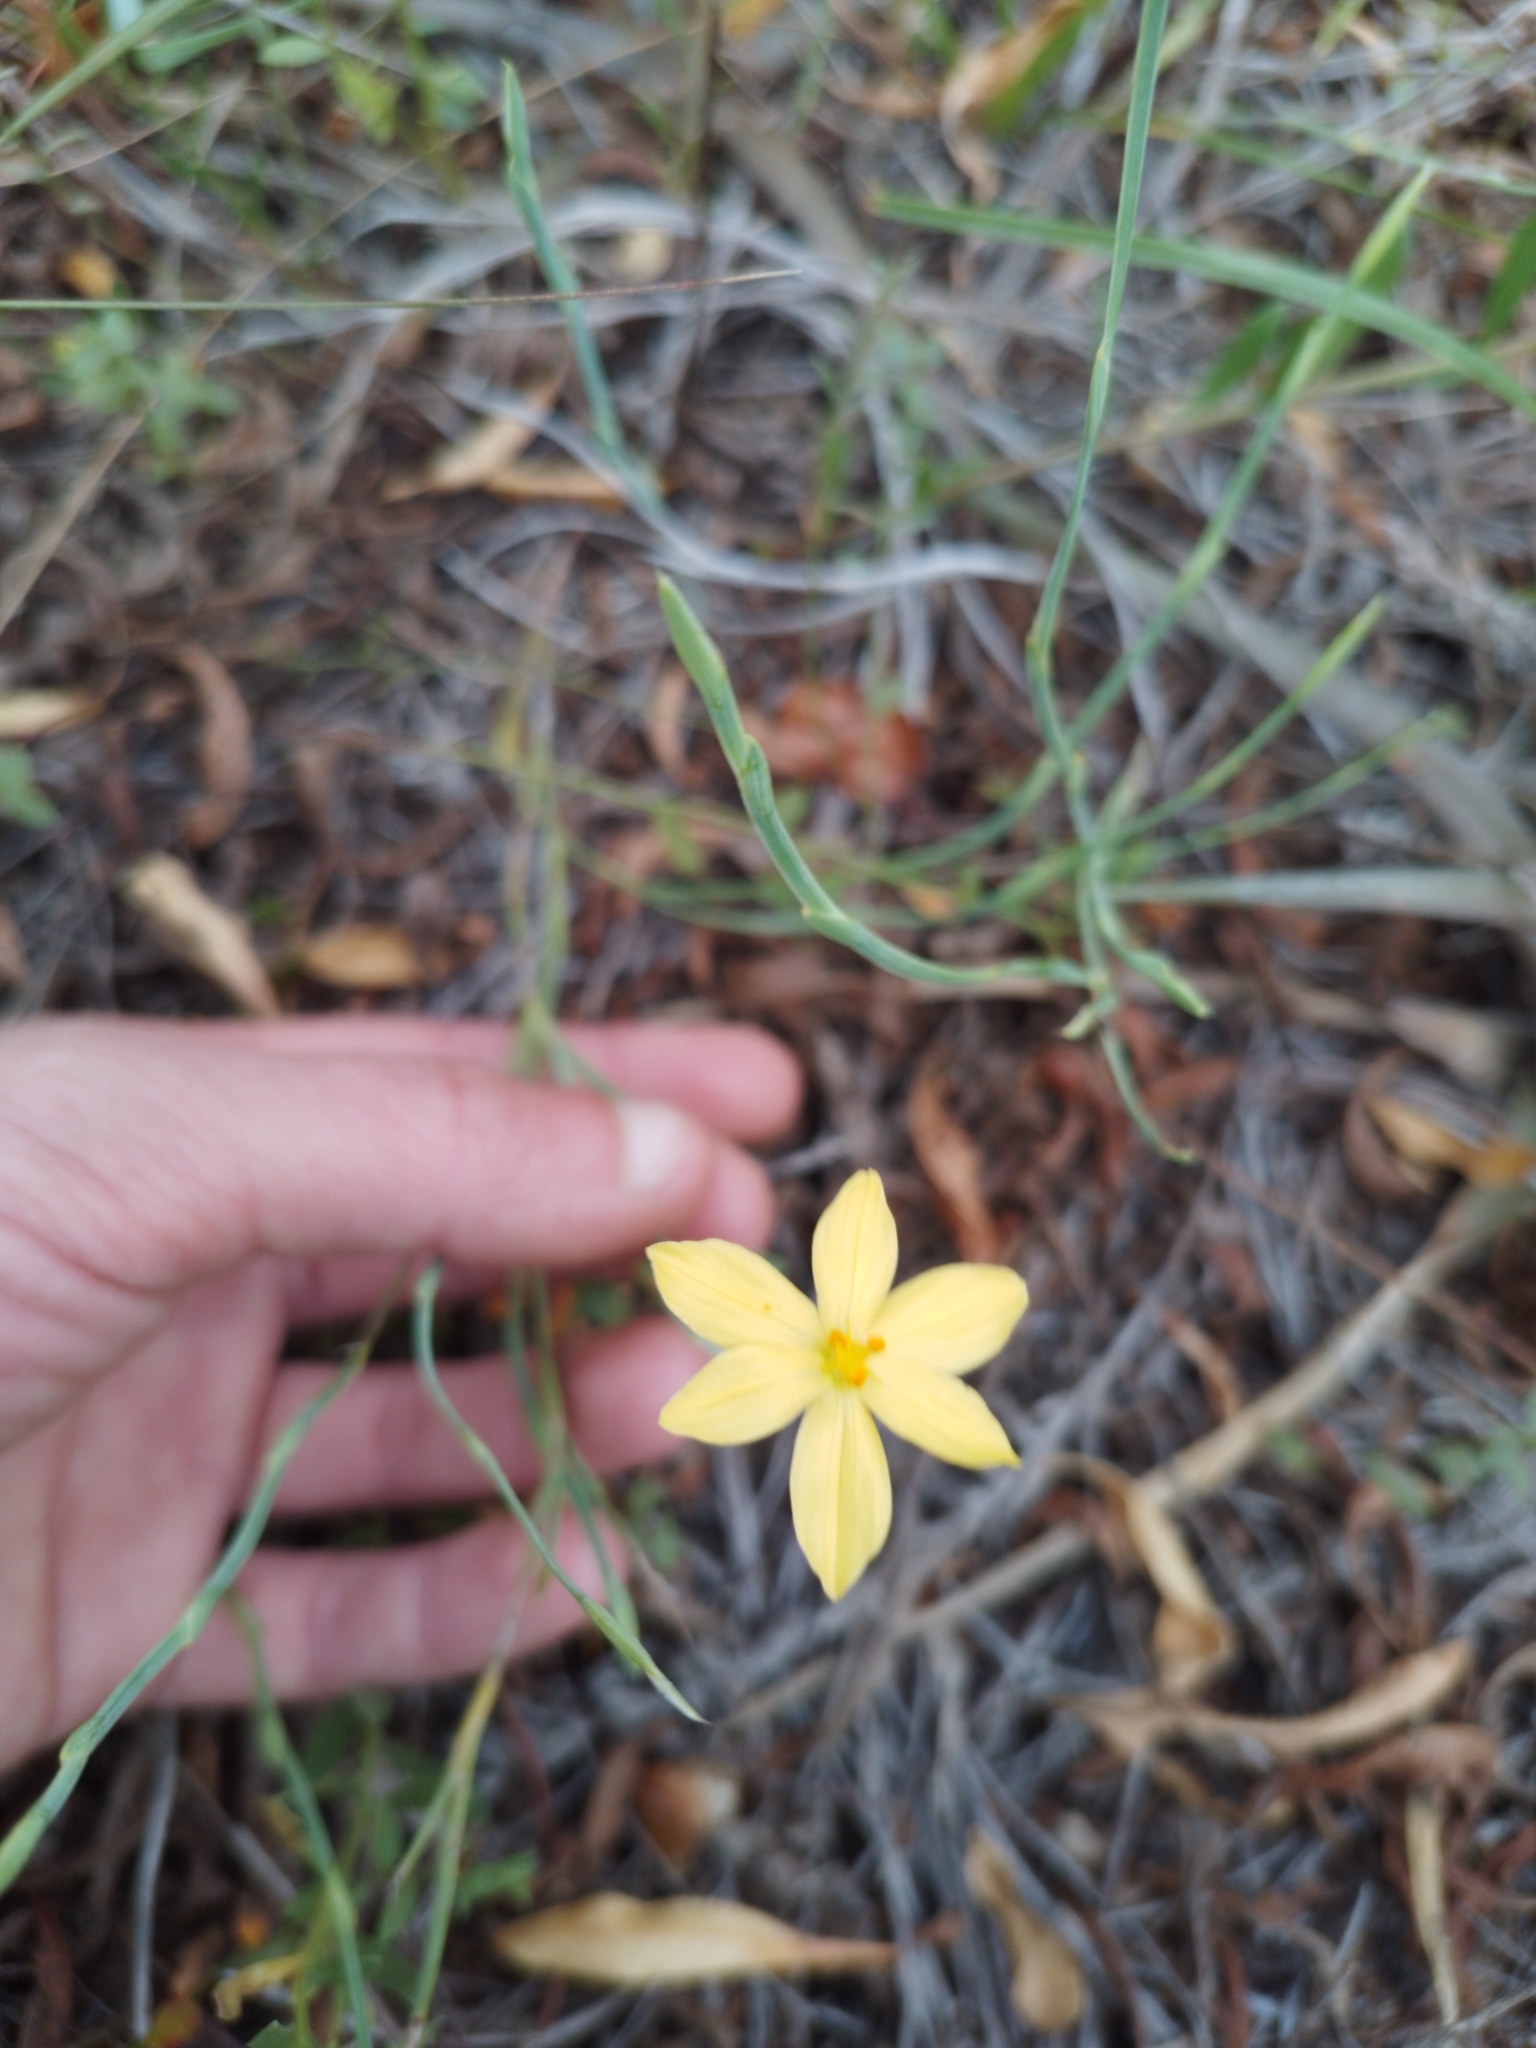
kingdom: Plantae
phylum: Tracheophyta
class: Liliopsida
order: Asparagales
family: Iridaceae
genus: Sisyrinchium
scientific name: Sisyrinchium vaginatum
